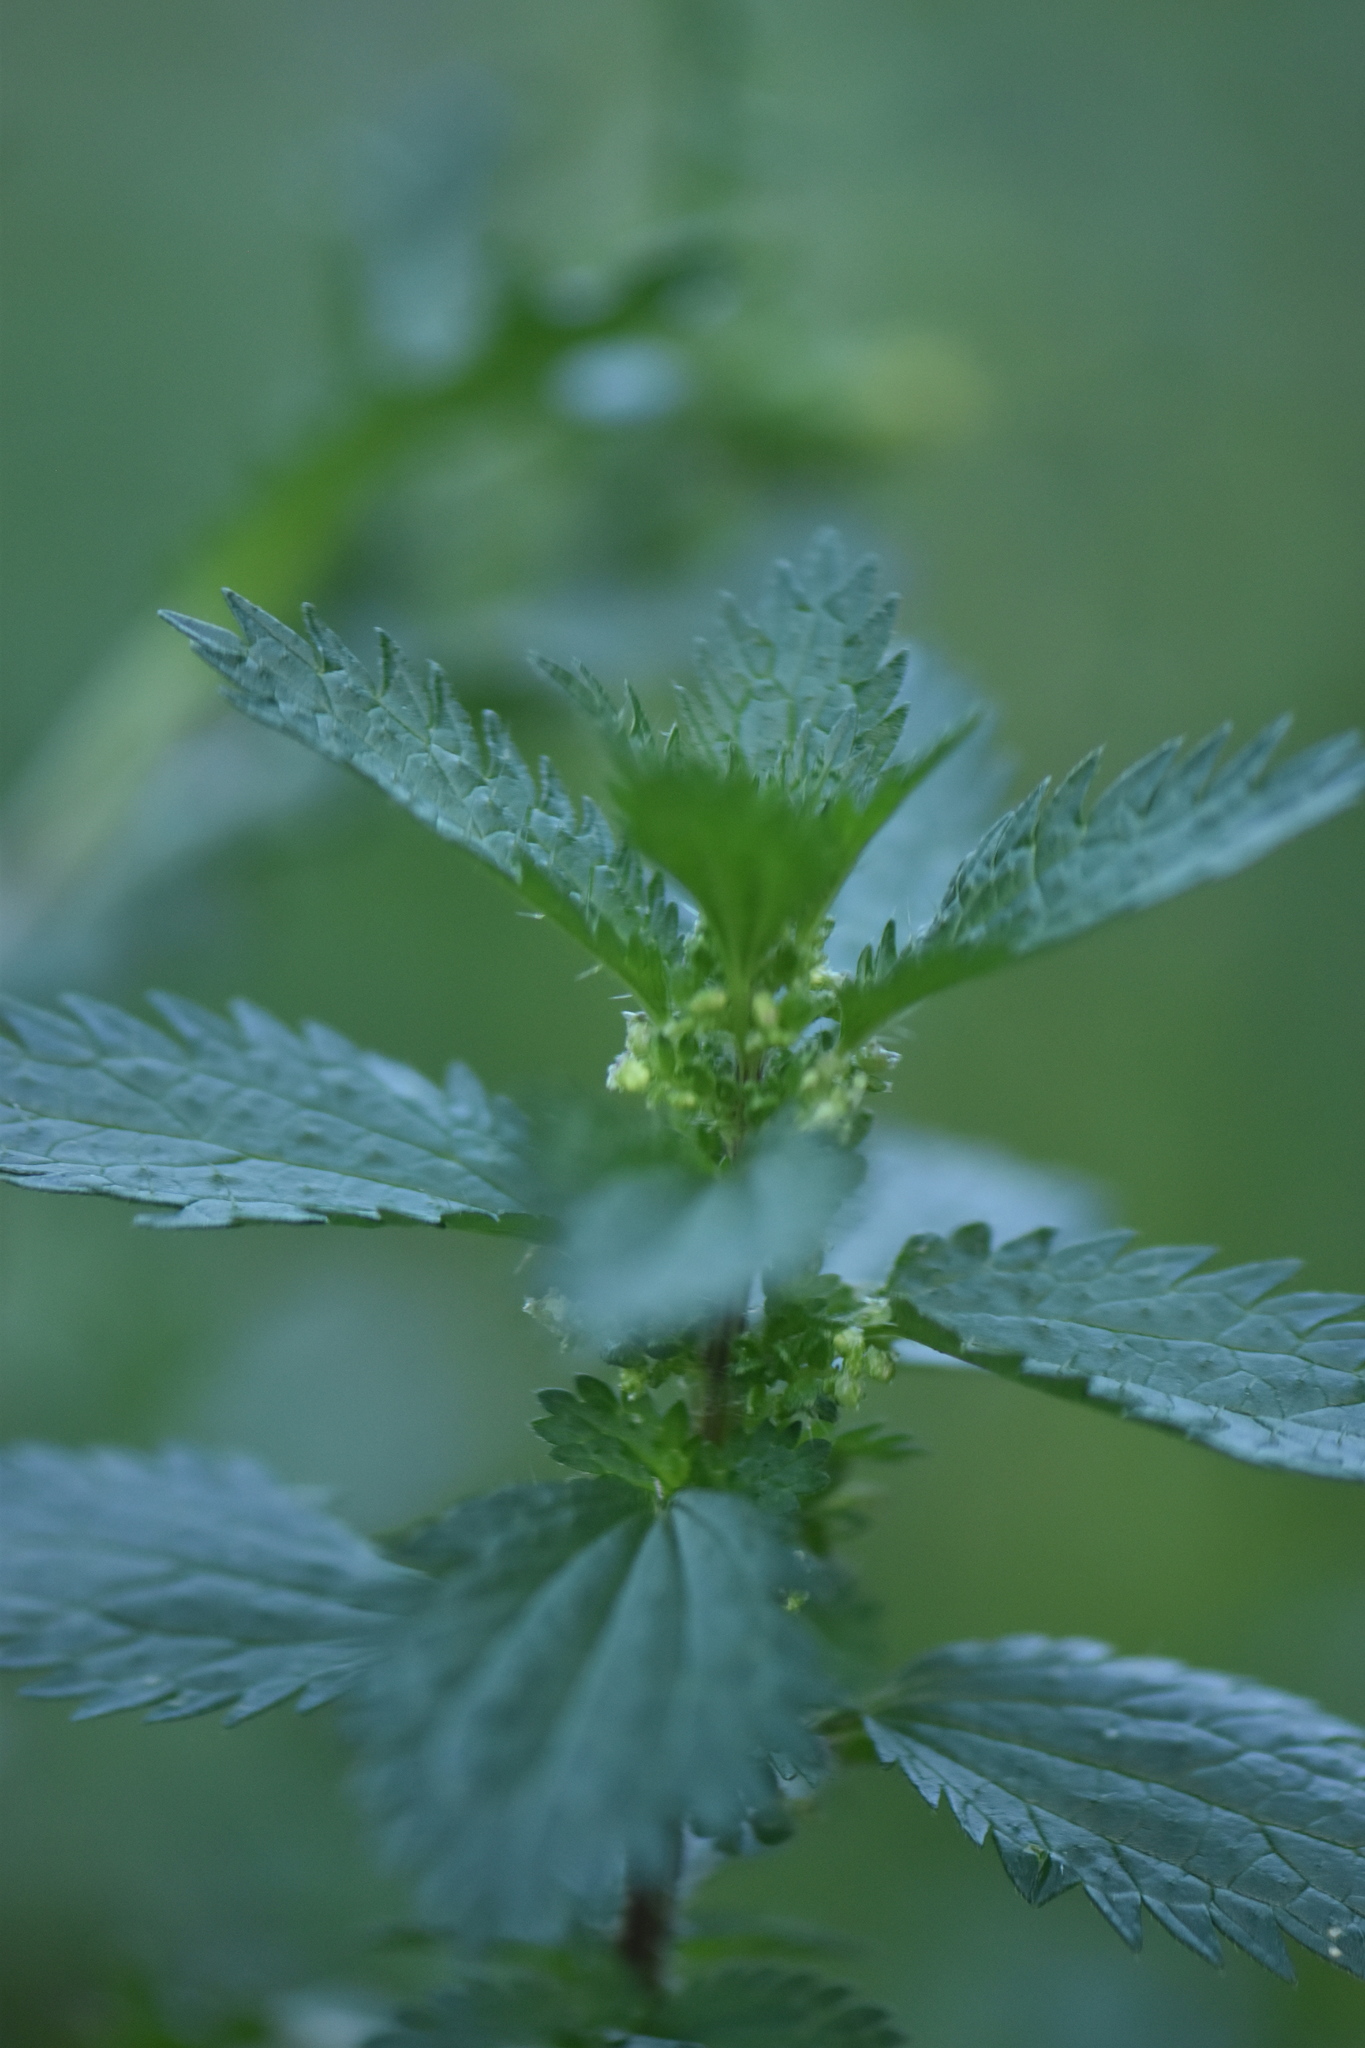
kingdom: Plantae
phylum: Tracheophyta
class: Magnoliopsida
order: Rosales
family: Urticaceae
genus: Urtica
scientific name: Urtica urens
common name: Dwarf nettle
